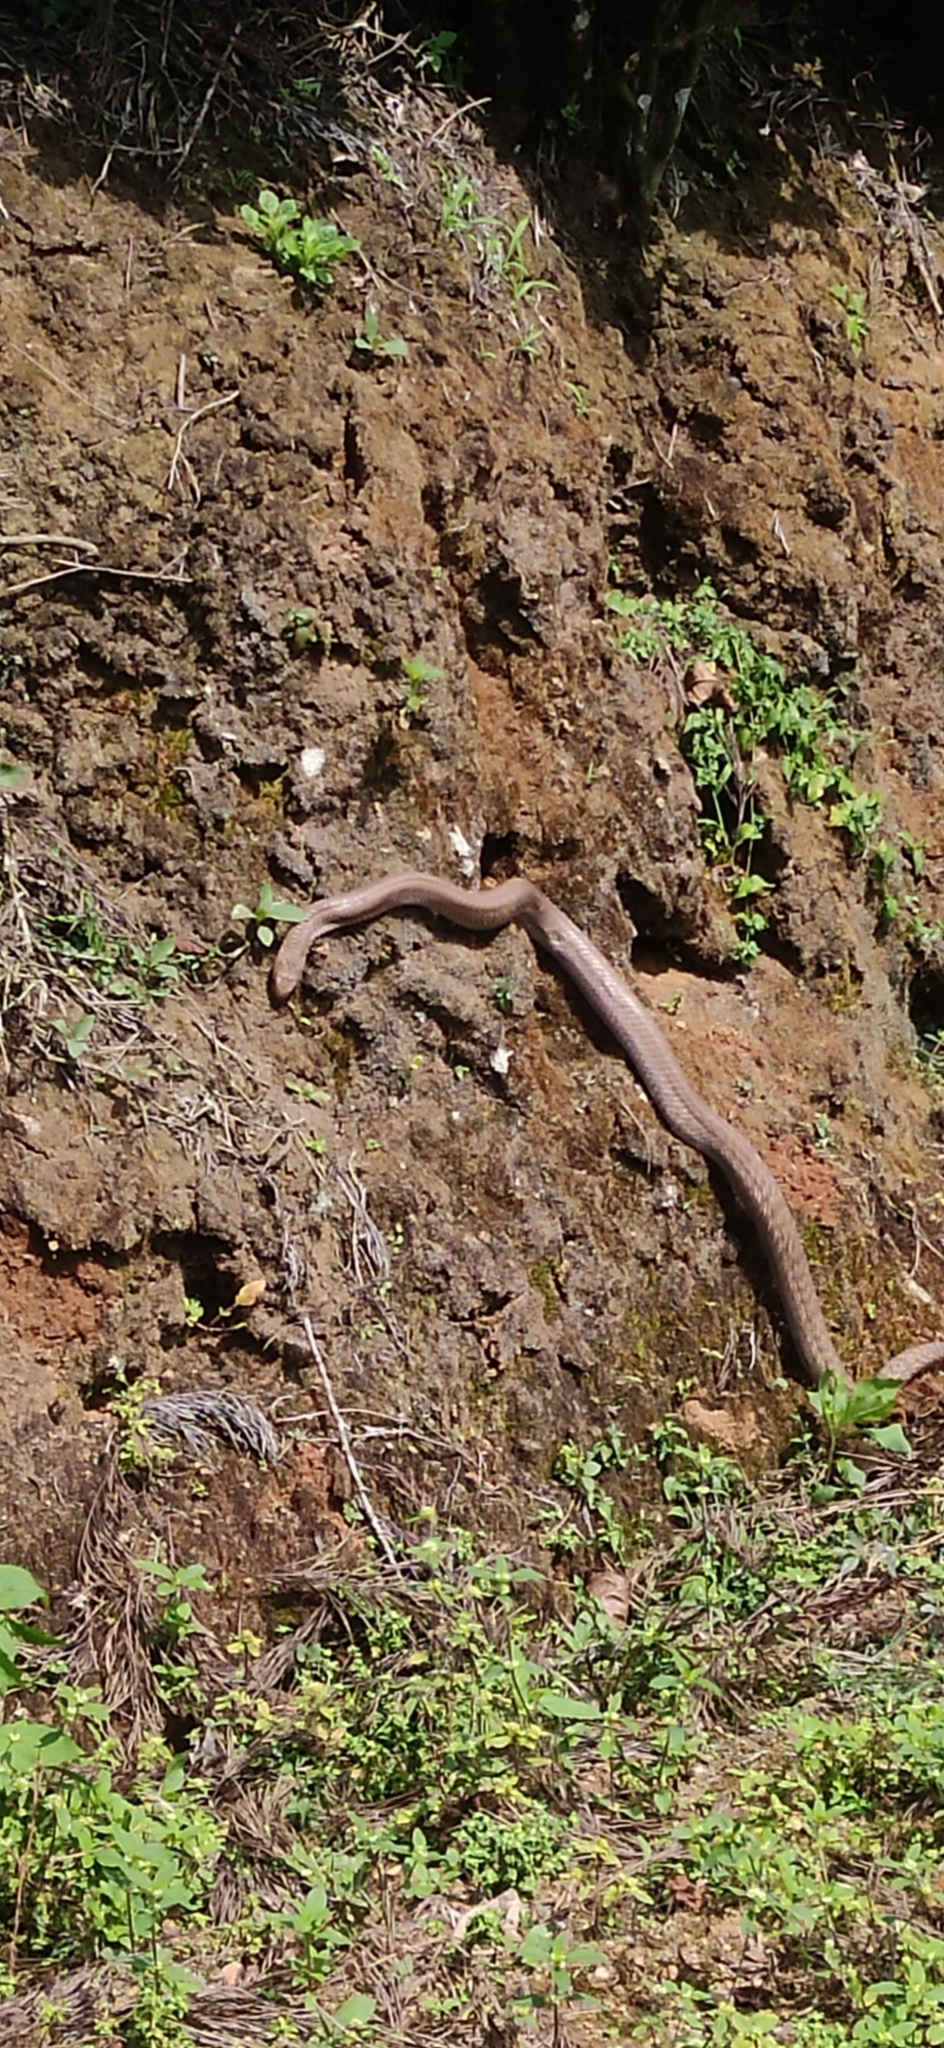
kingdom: Animalia
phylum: Chordata
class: Squamata
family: Elapidae
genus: Naja
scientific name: Naja naja
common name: Indian cobra
